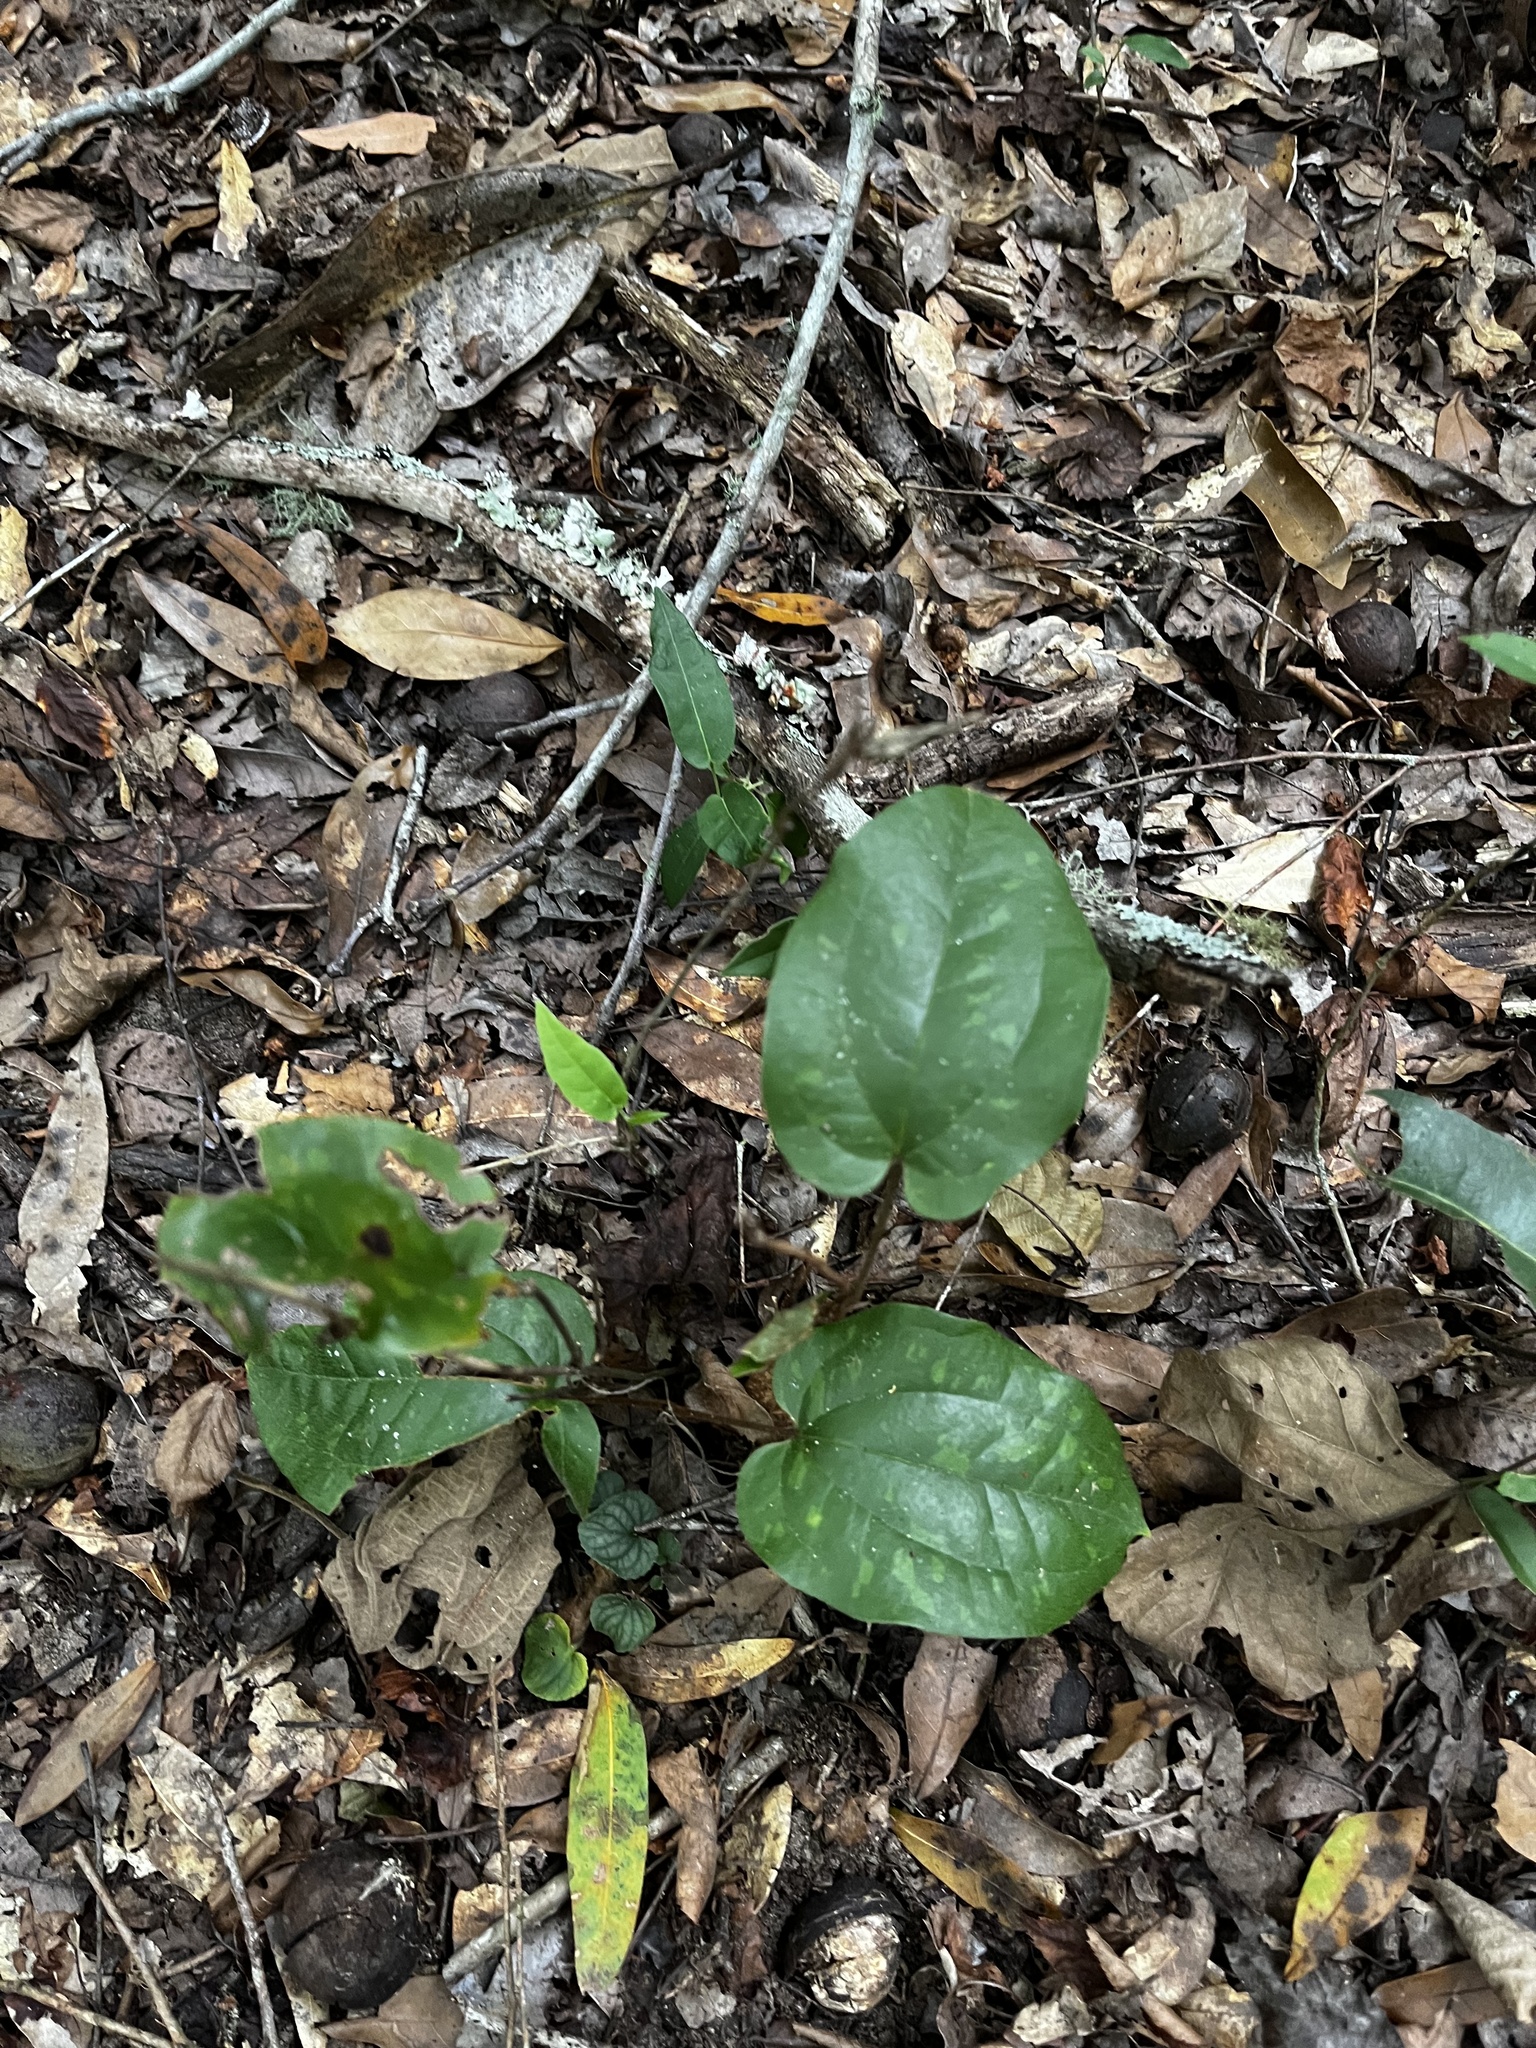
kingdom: Plantae
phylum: Tracheophyta
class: Liliopsida
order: Liliales
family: Smilacaceae
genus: Smilax
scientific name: Smilax pumila
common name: Sarsaparilla-vine
